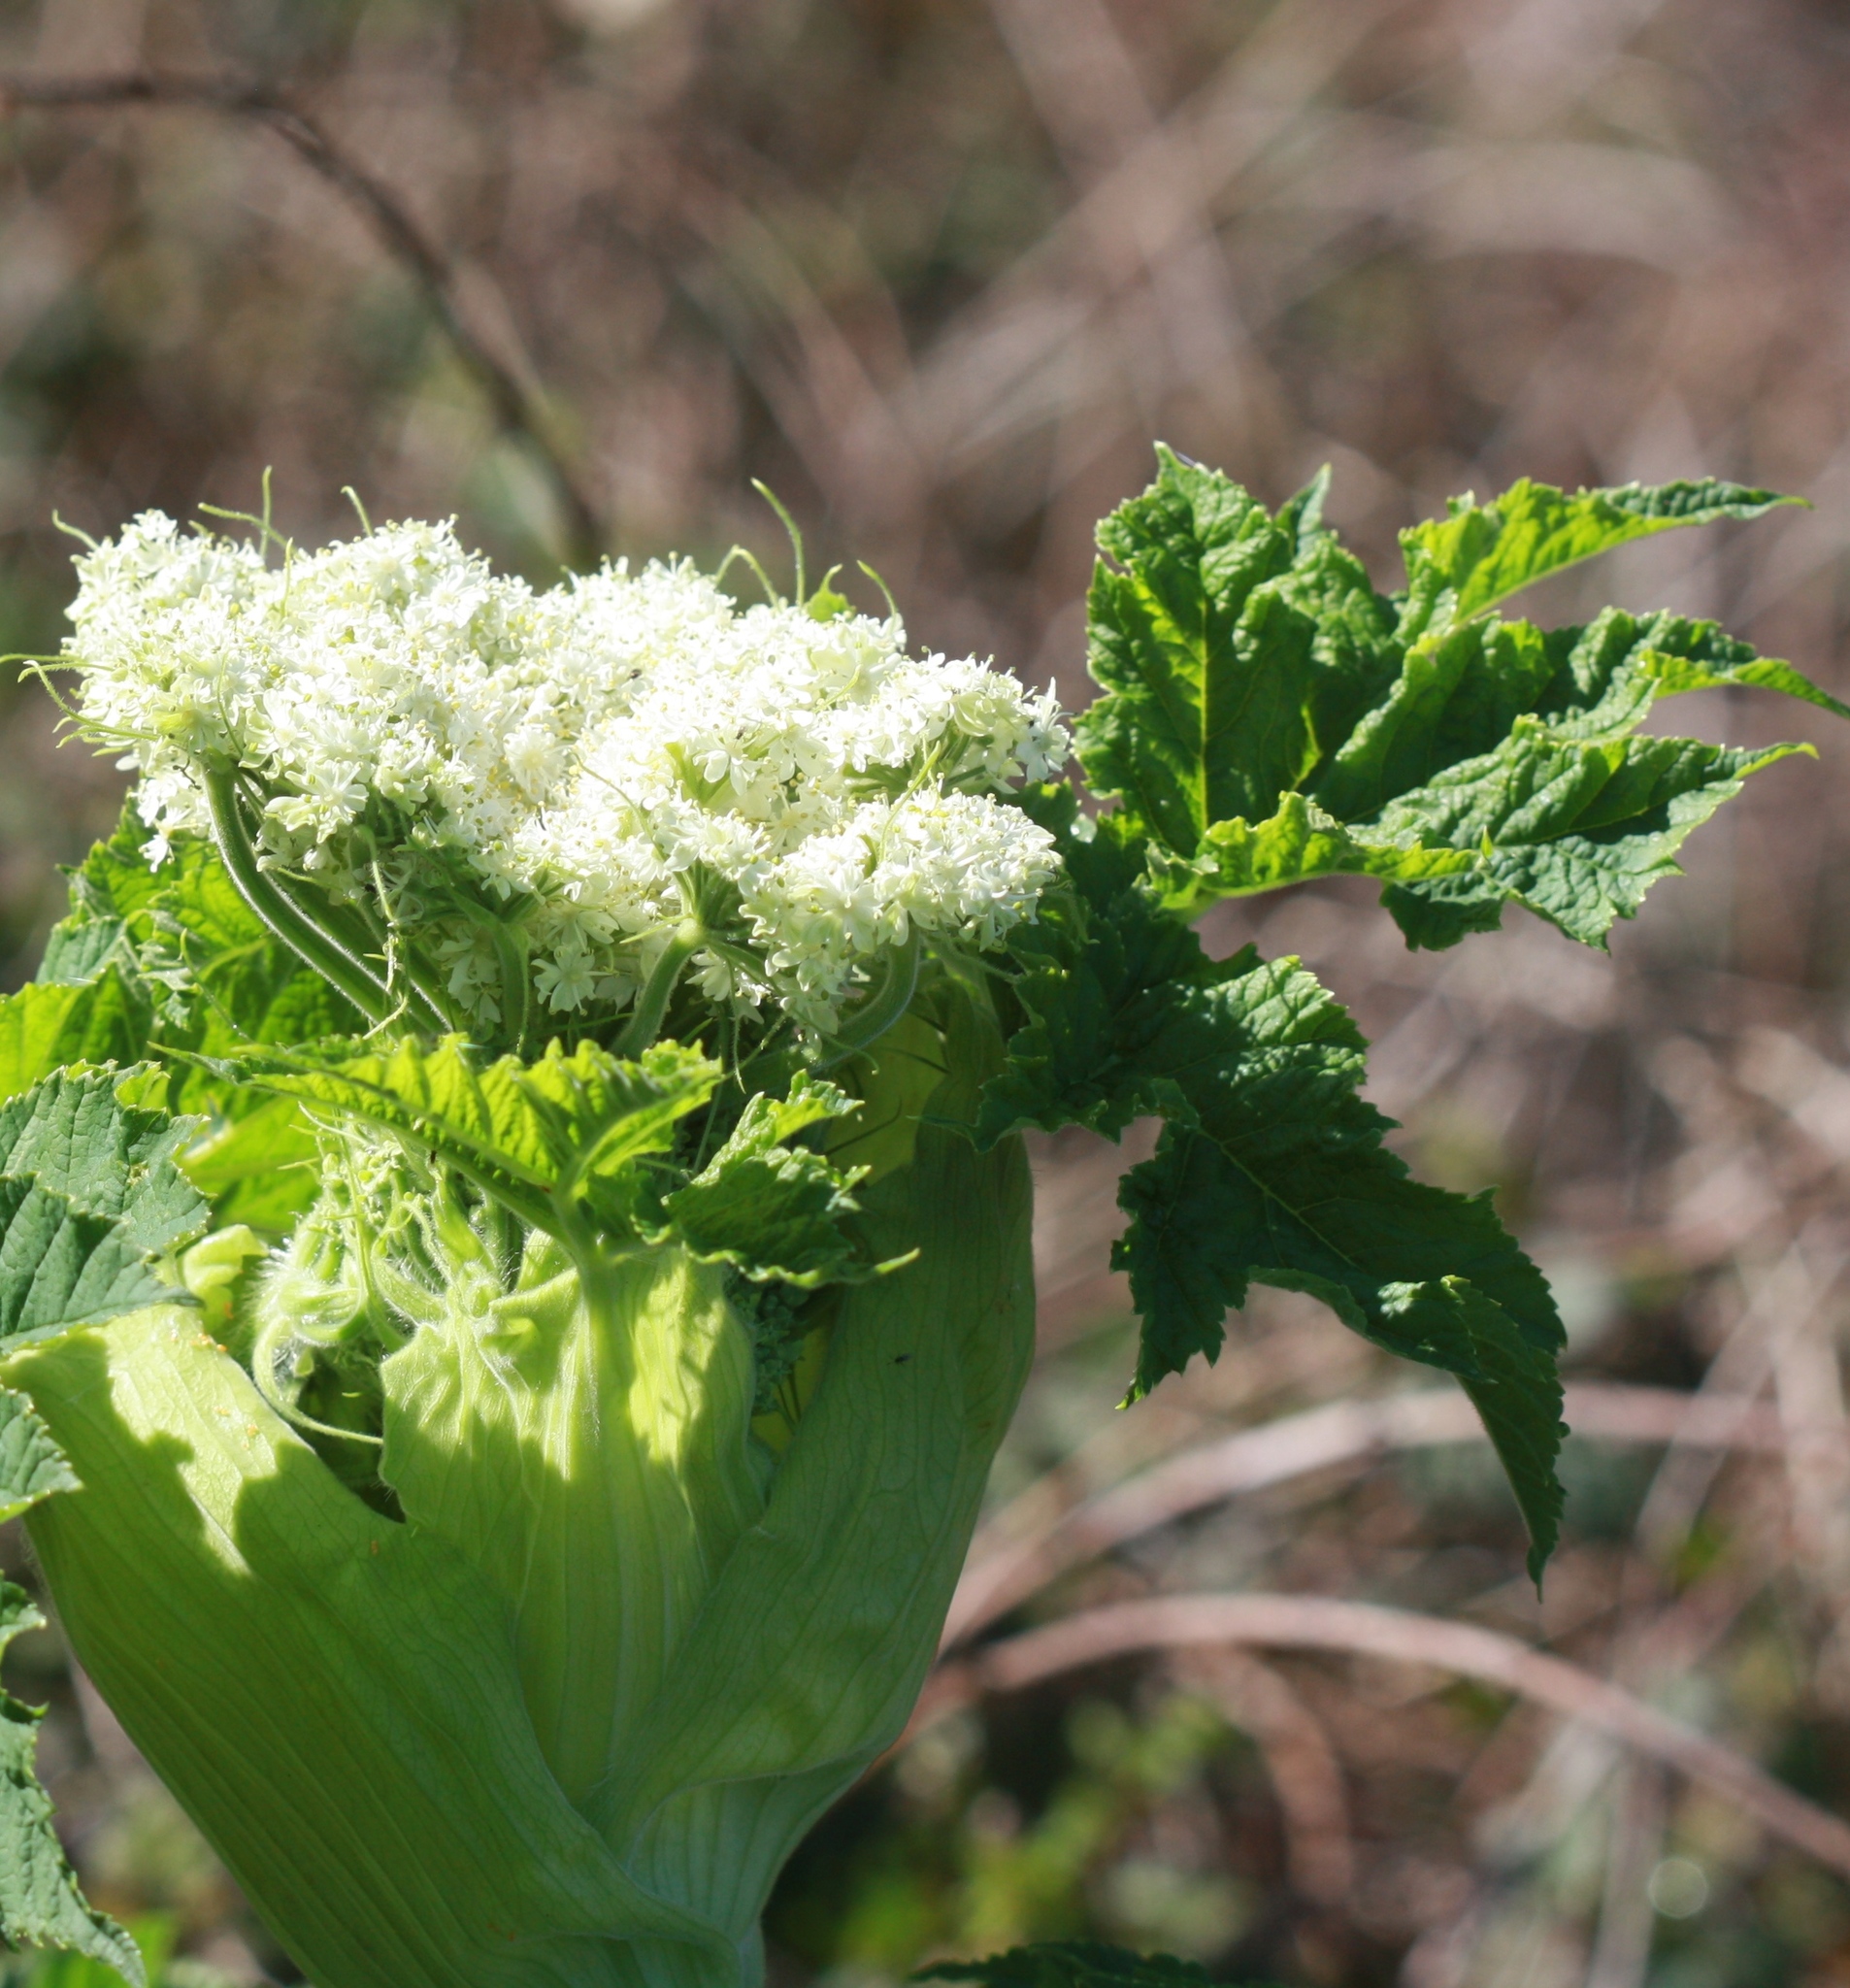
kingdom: Plantae
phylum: Tracheophyta
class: Magnoliopsida
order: Apiales
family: Apiaceae
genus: Heracleum
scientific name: Heracleum maximum
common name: American cow parsnip
